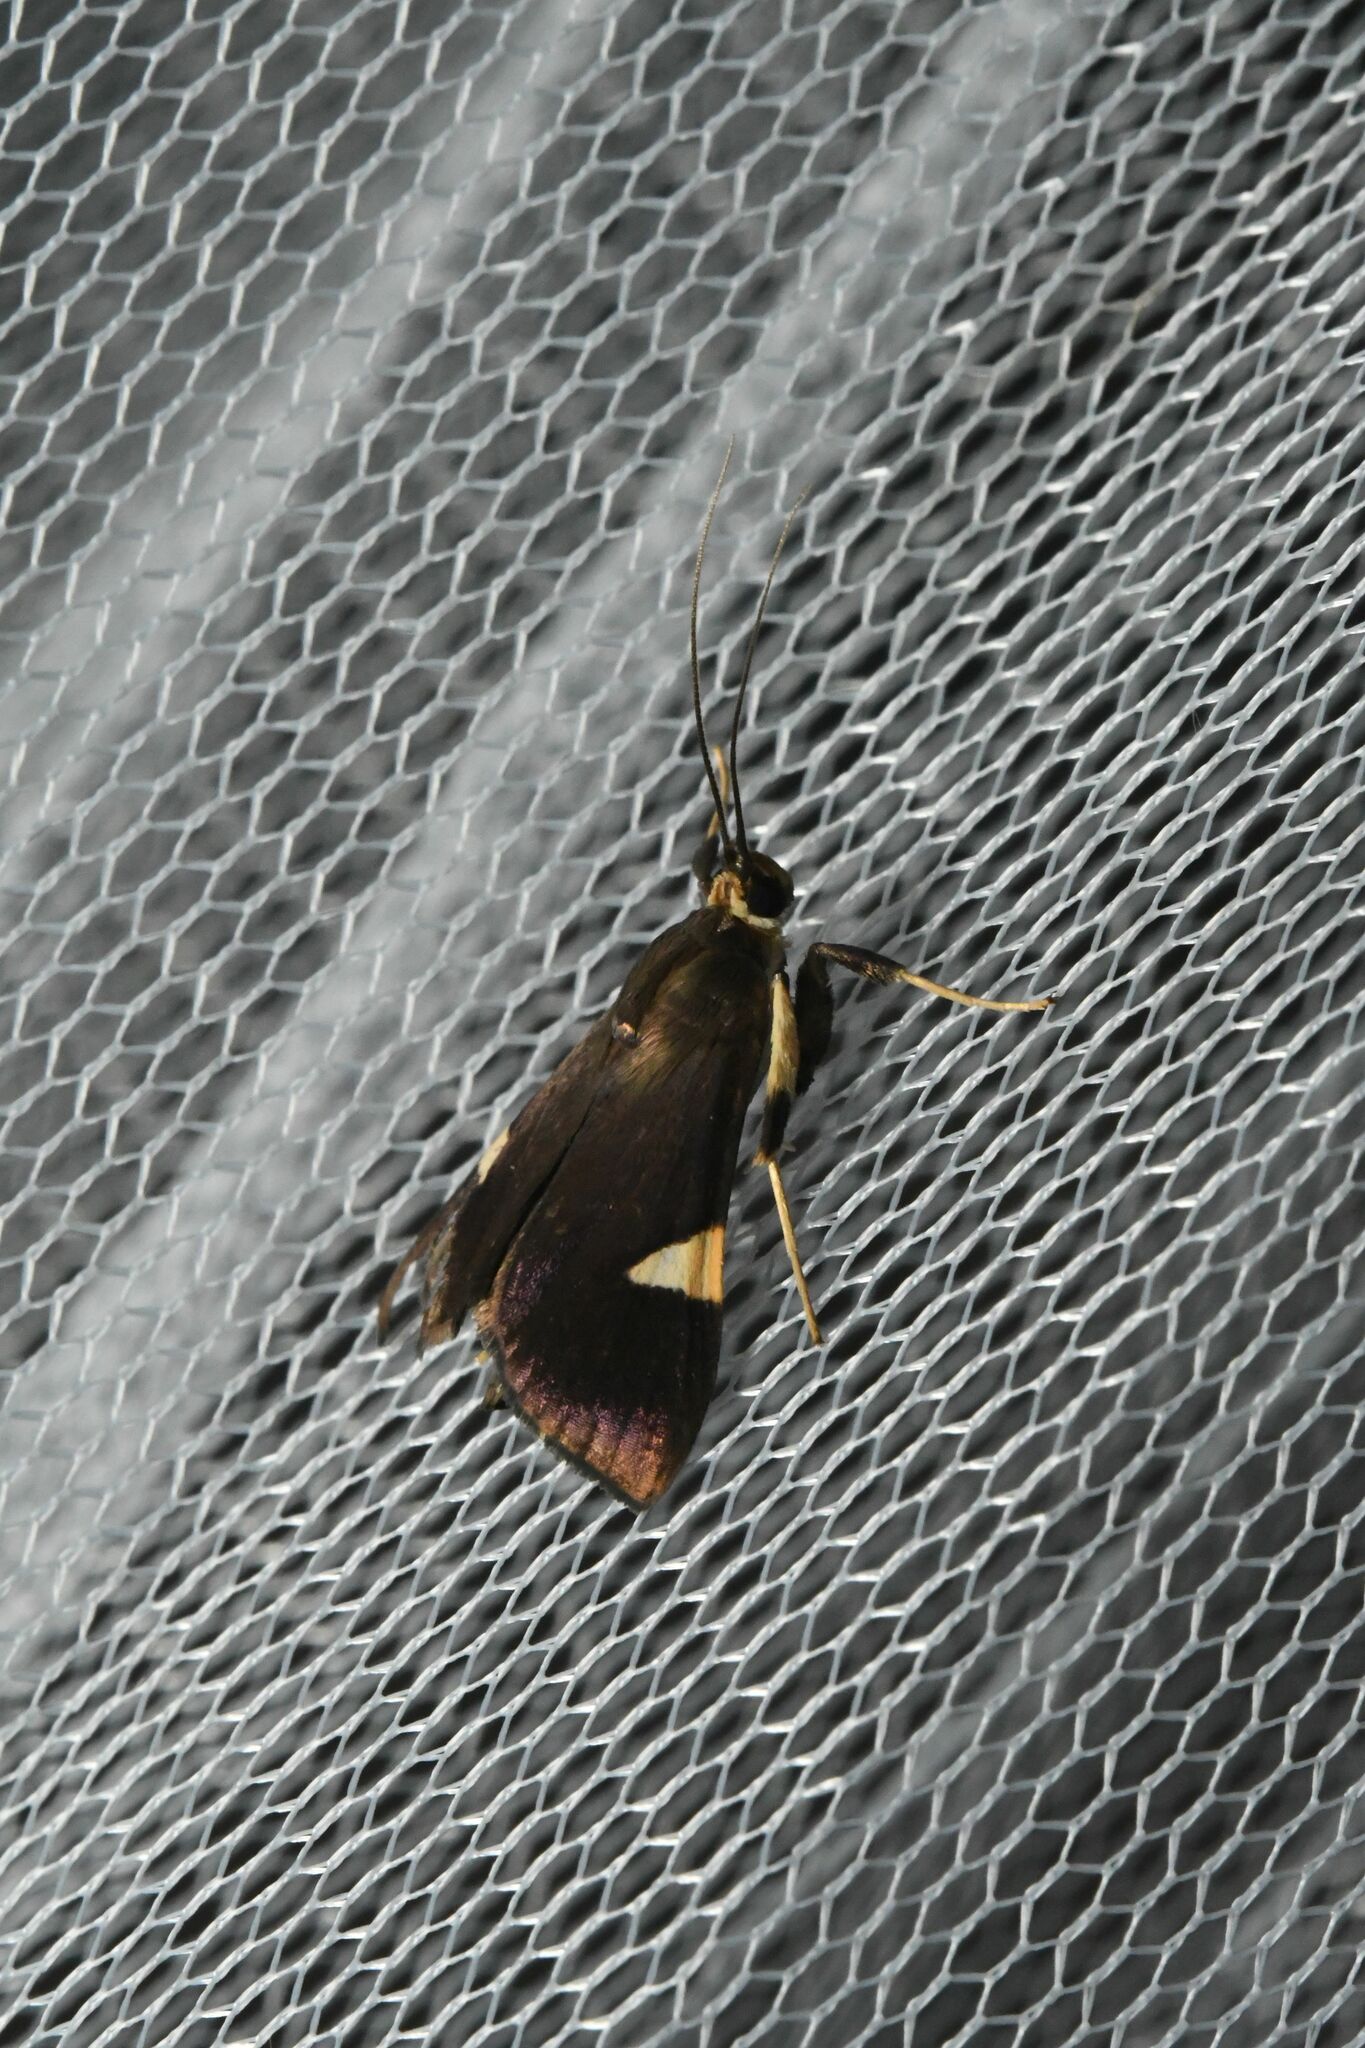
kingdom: Animalia
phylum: Arthropoda
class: Insecta
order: Lepidoptera
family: Crambidae
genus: Ulopeza
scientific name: Ulopeza conigeralis
